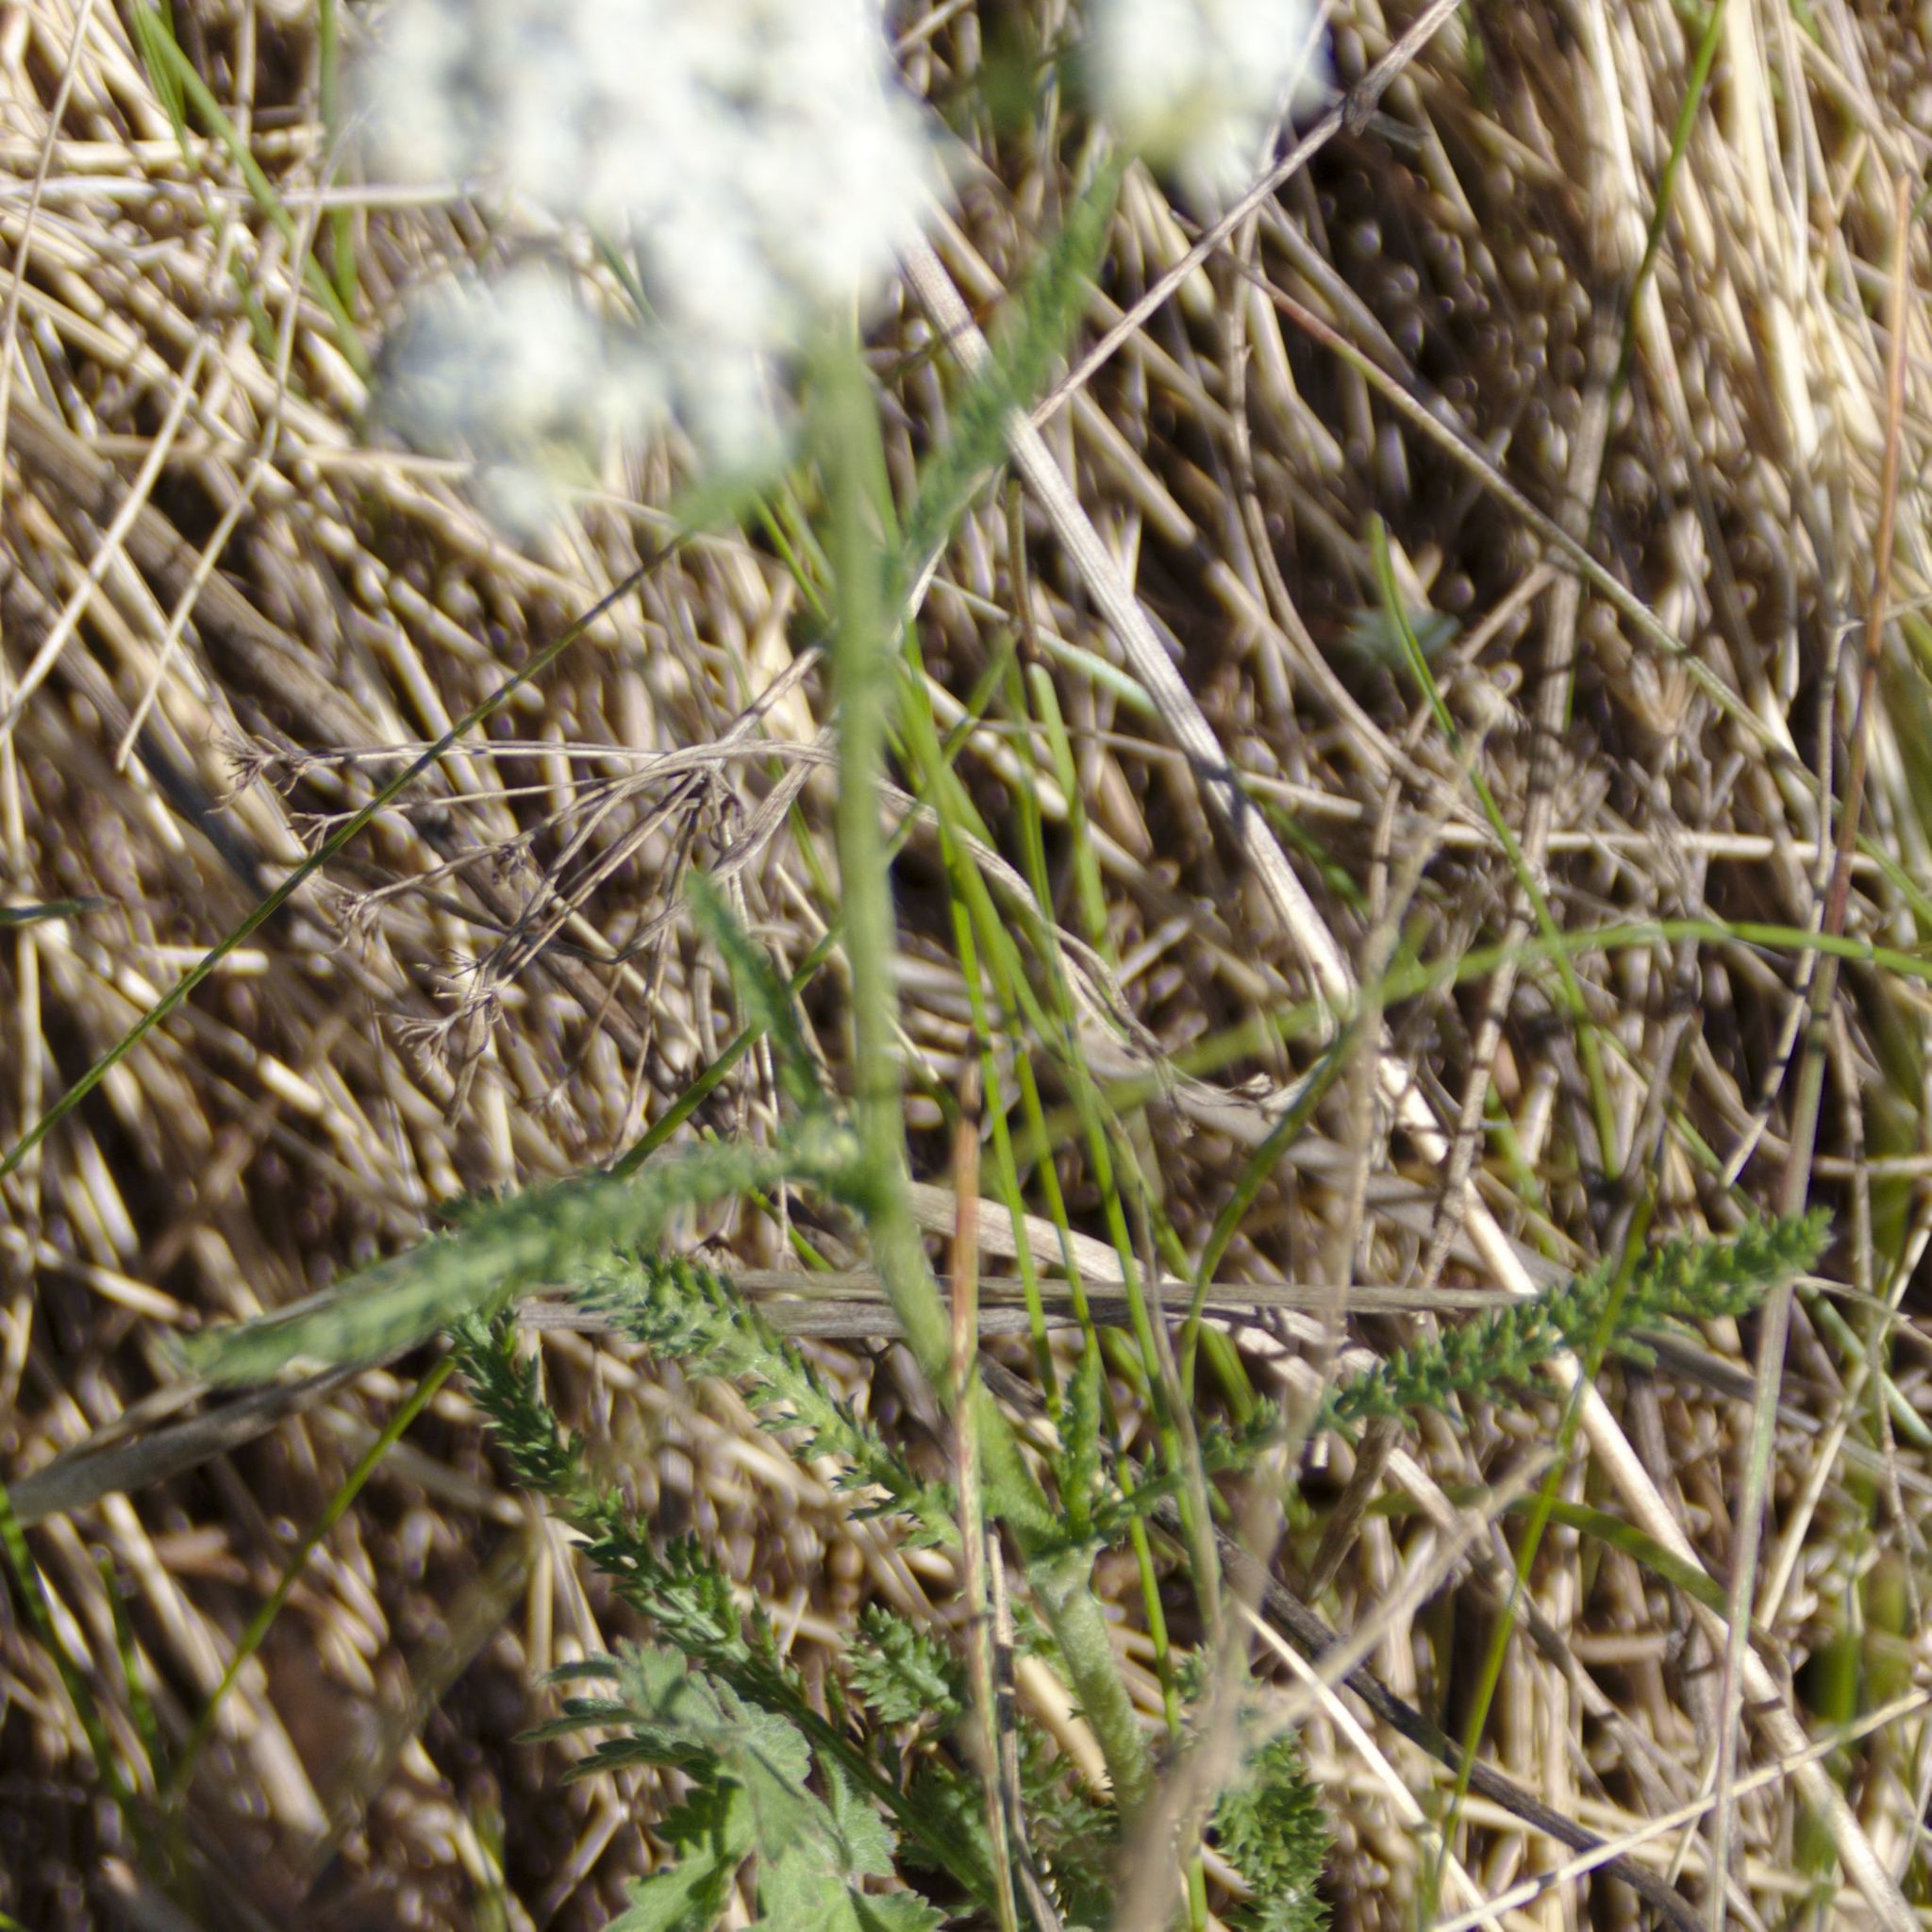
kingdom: Plantae
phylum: Tracheophyta
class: Magnoliopsida
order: Asterales
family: Asteraceae
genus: Achillea
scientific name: Achillea millefolium
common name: Yarrow
